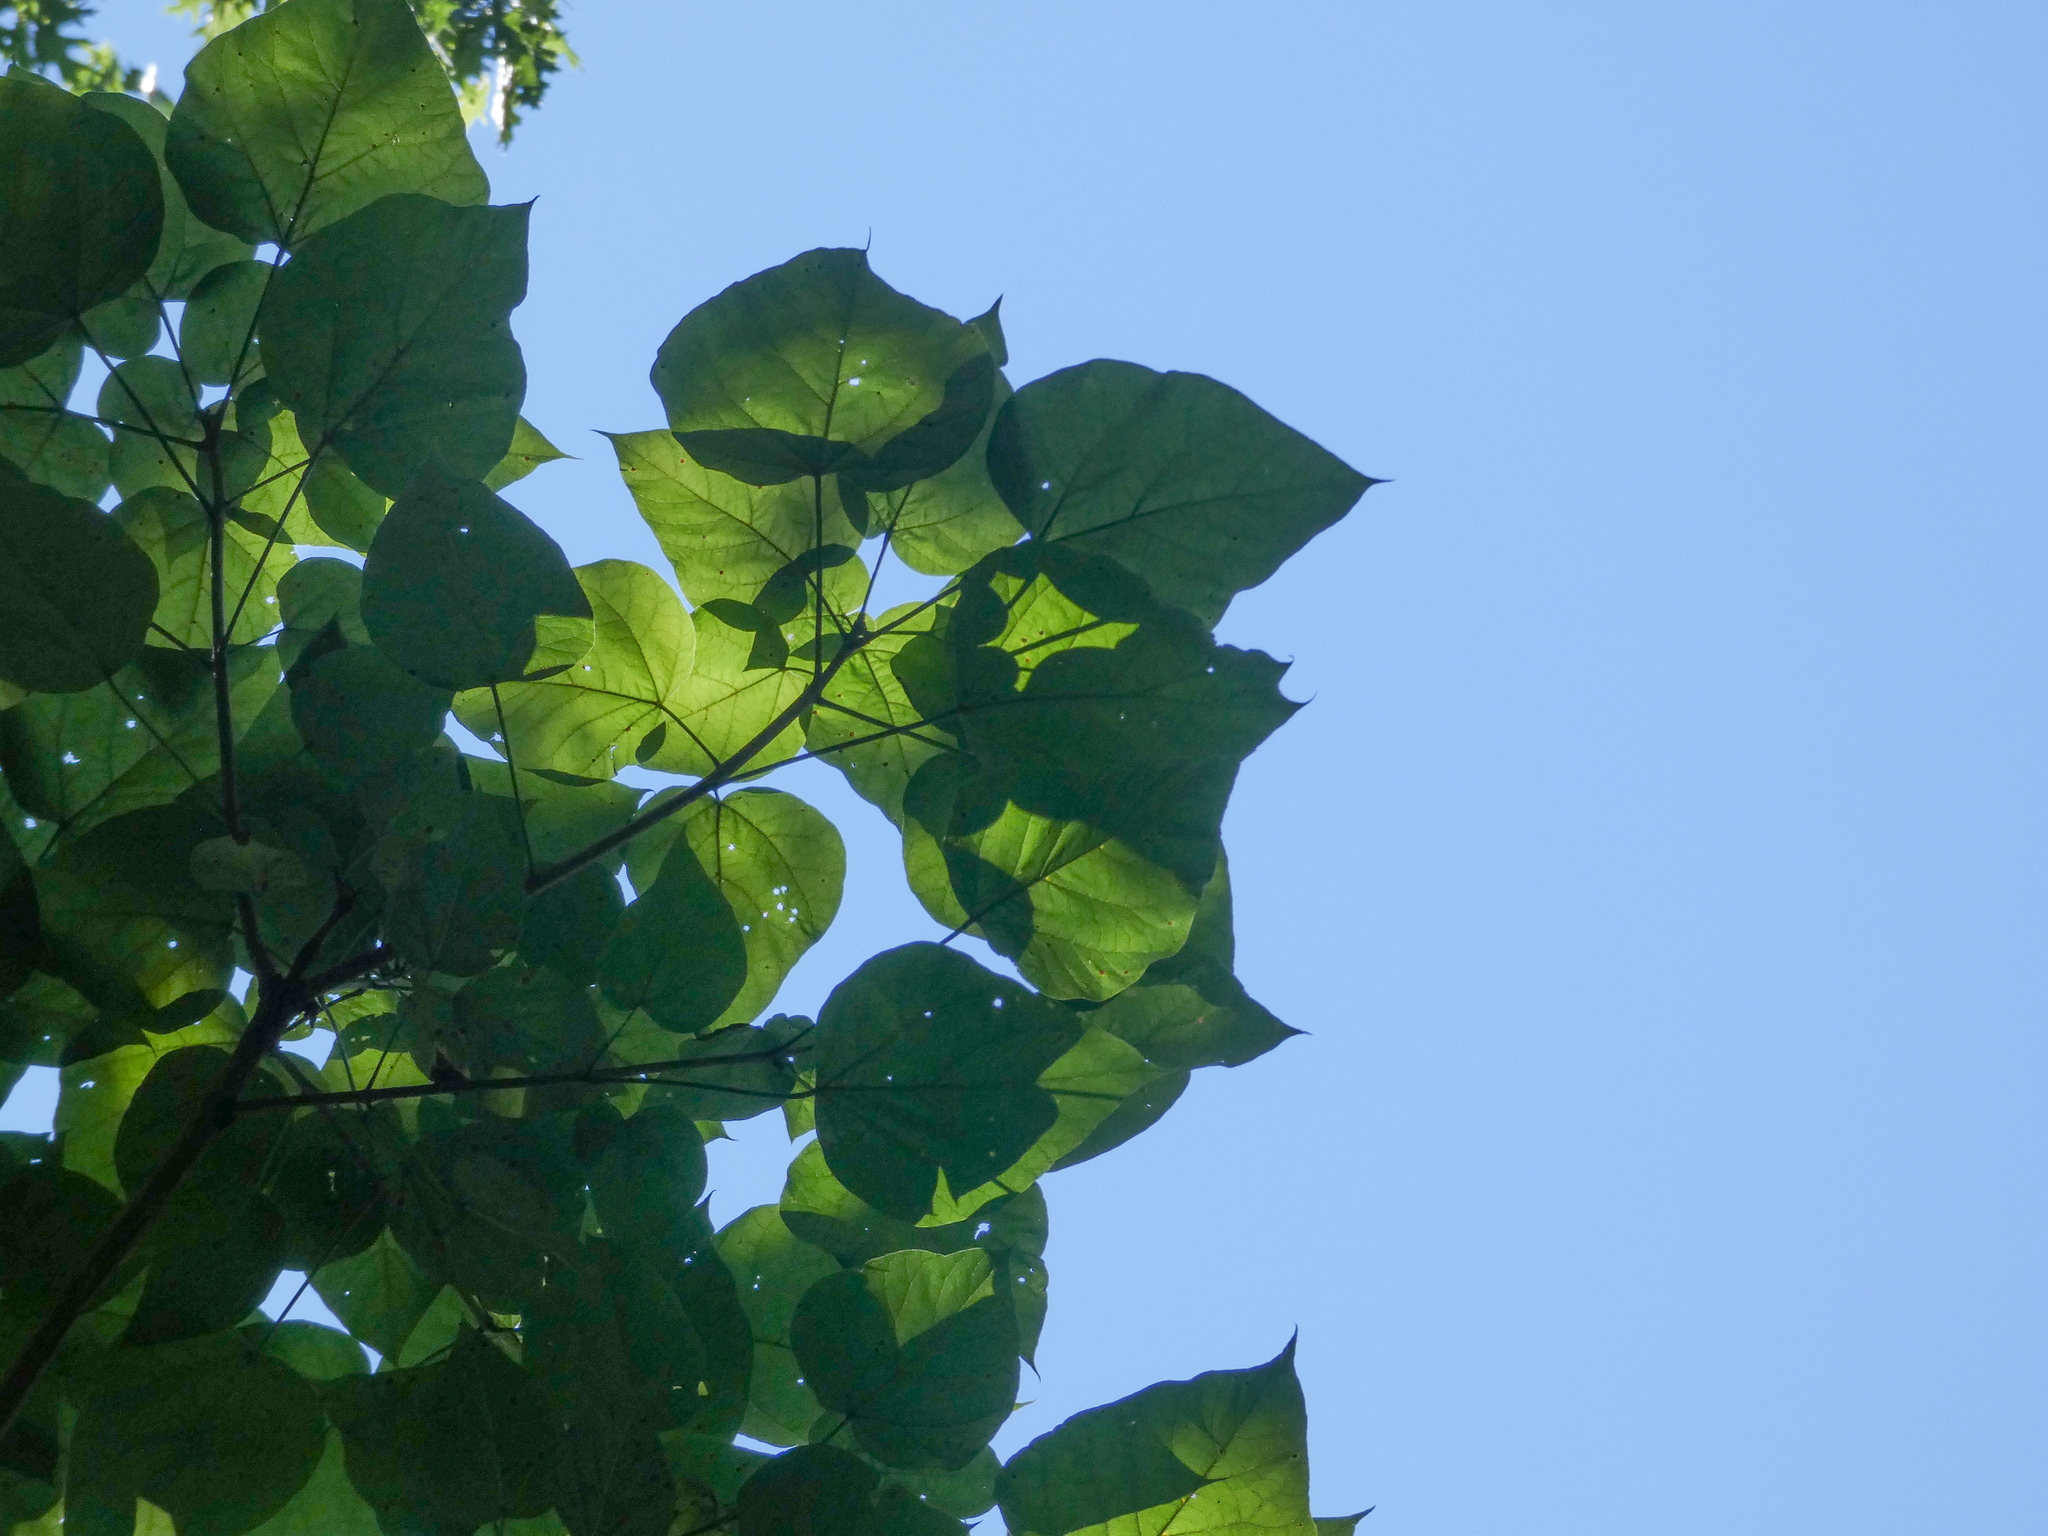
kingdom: Plantae
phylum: Tracheophyta
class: Magnoliopsida
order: Lamiales
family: Paulowniaceae
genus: Paulownia
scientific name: Paulownia tomentosa
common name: Foxglove-tree
